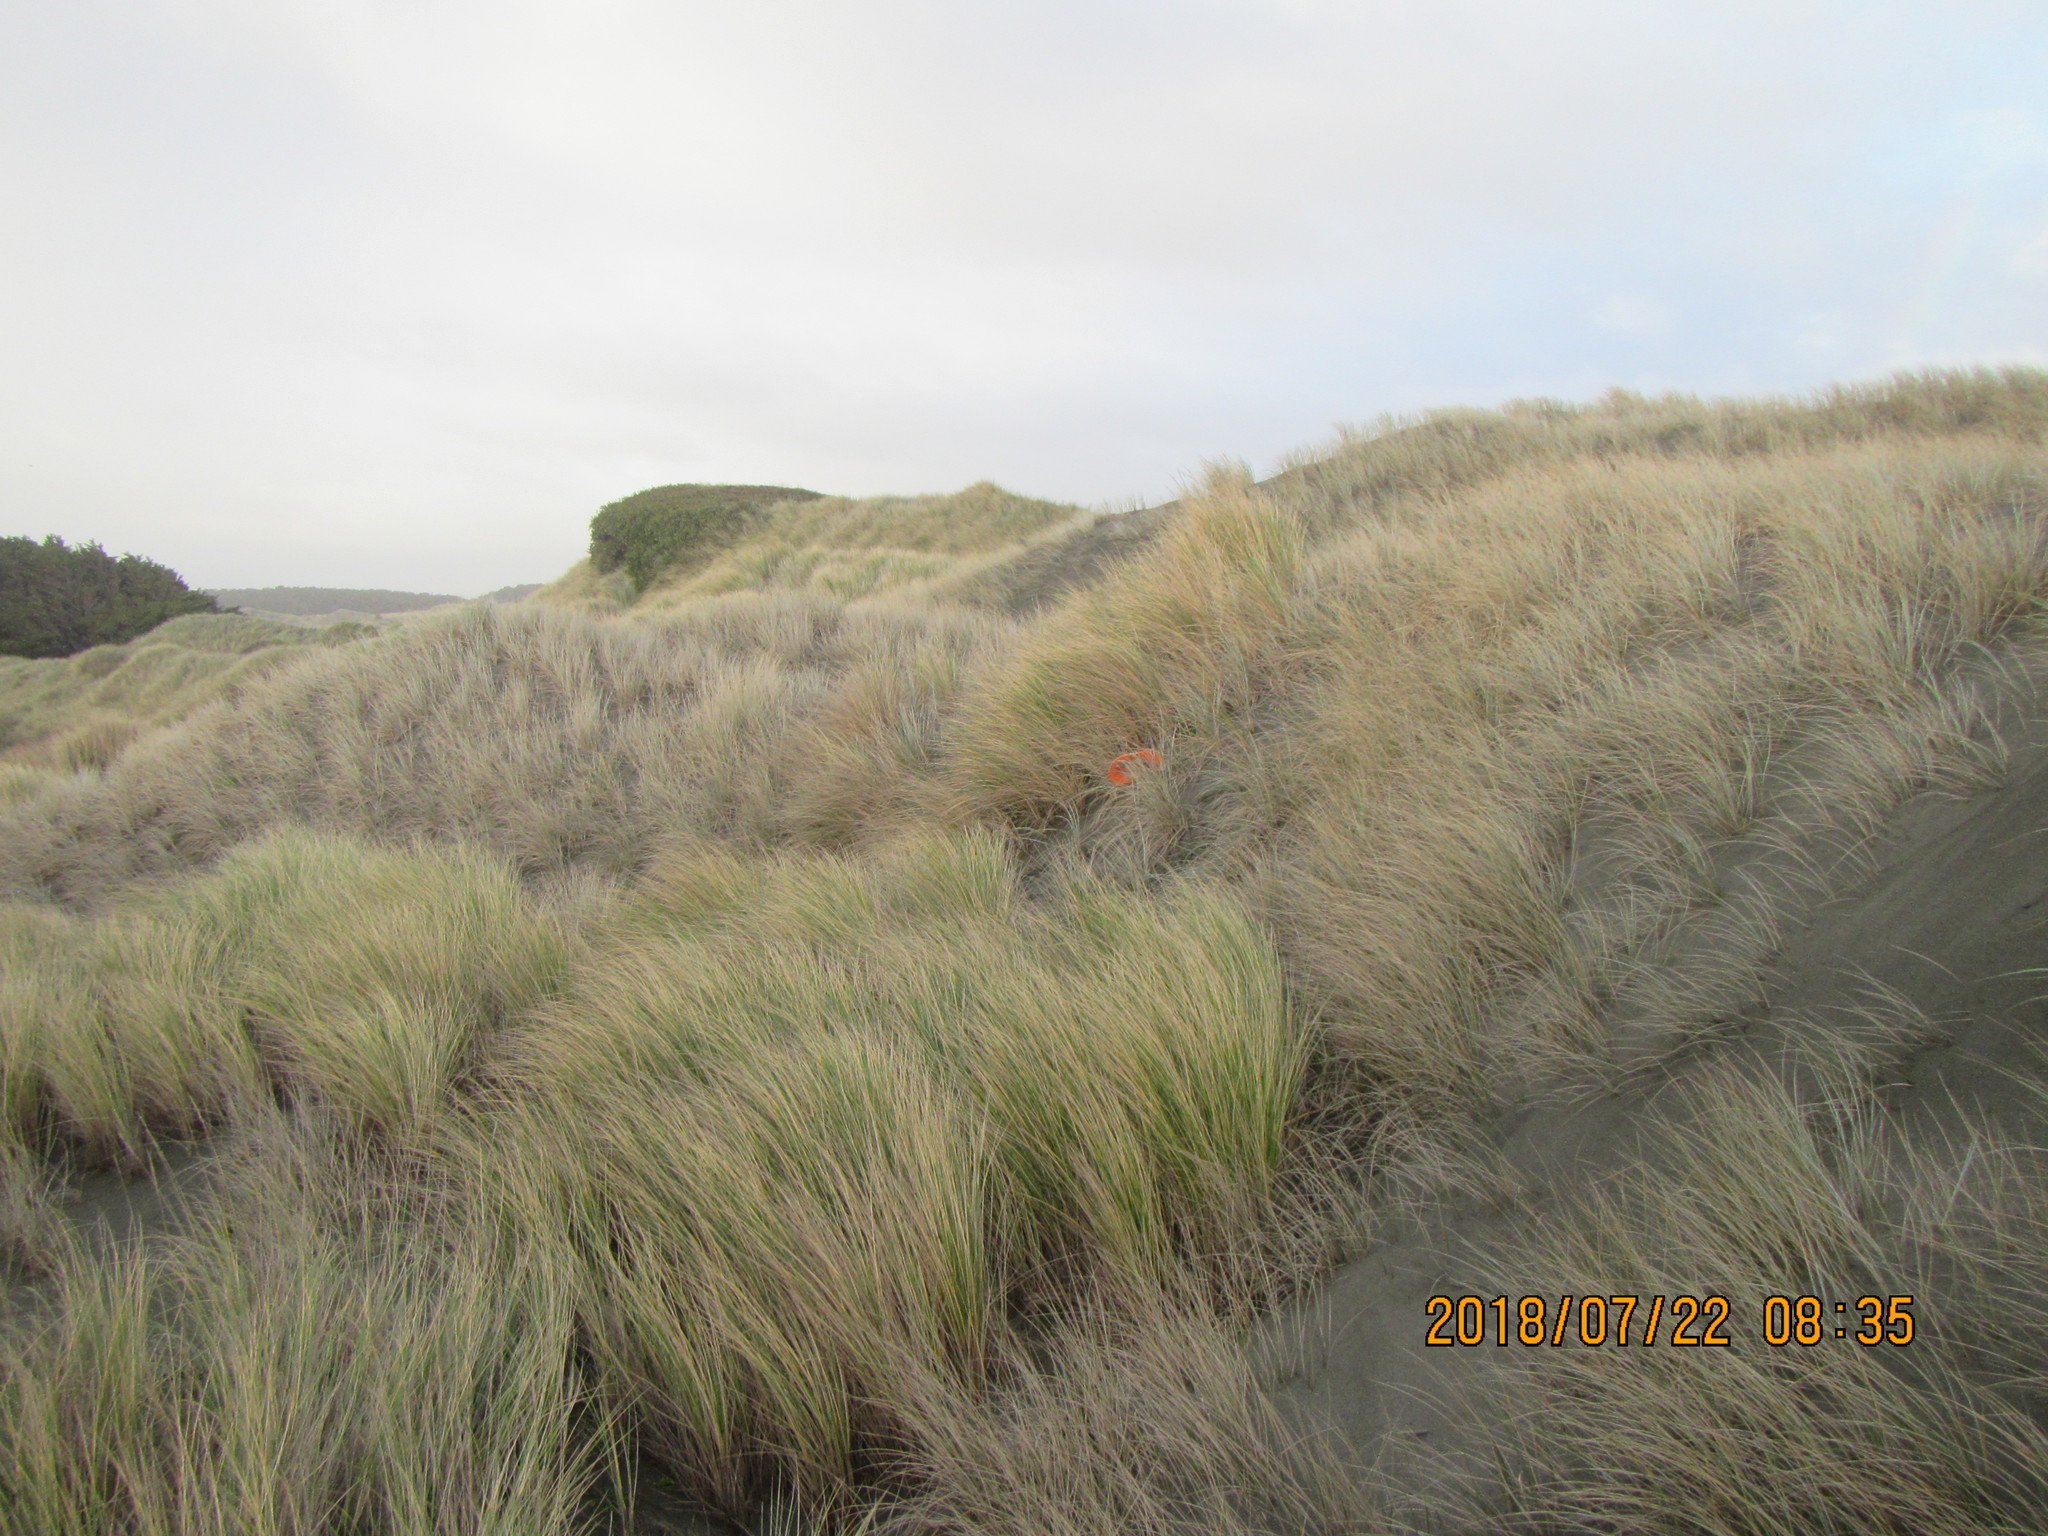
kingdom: Fungi
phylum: Basidiomycota
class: Agaricomycetes
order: Phallales
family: Phallaceae
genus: Ileodictyon
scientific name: Ileodictyon cibarium
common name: Basket fungus
